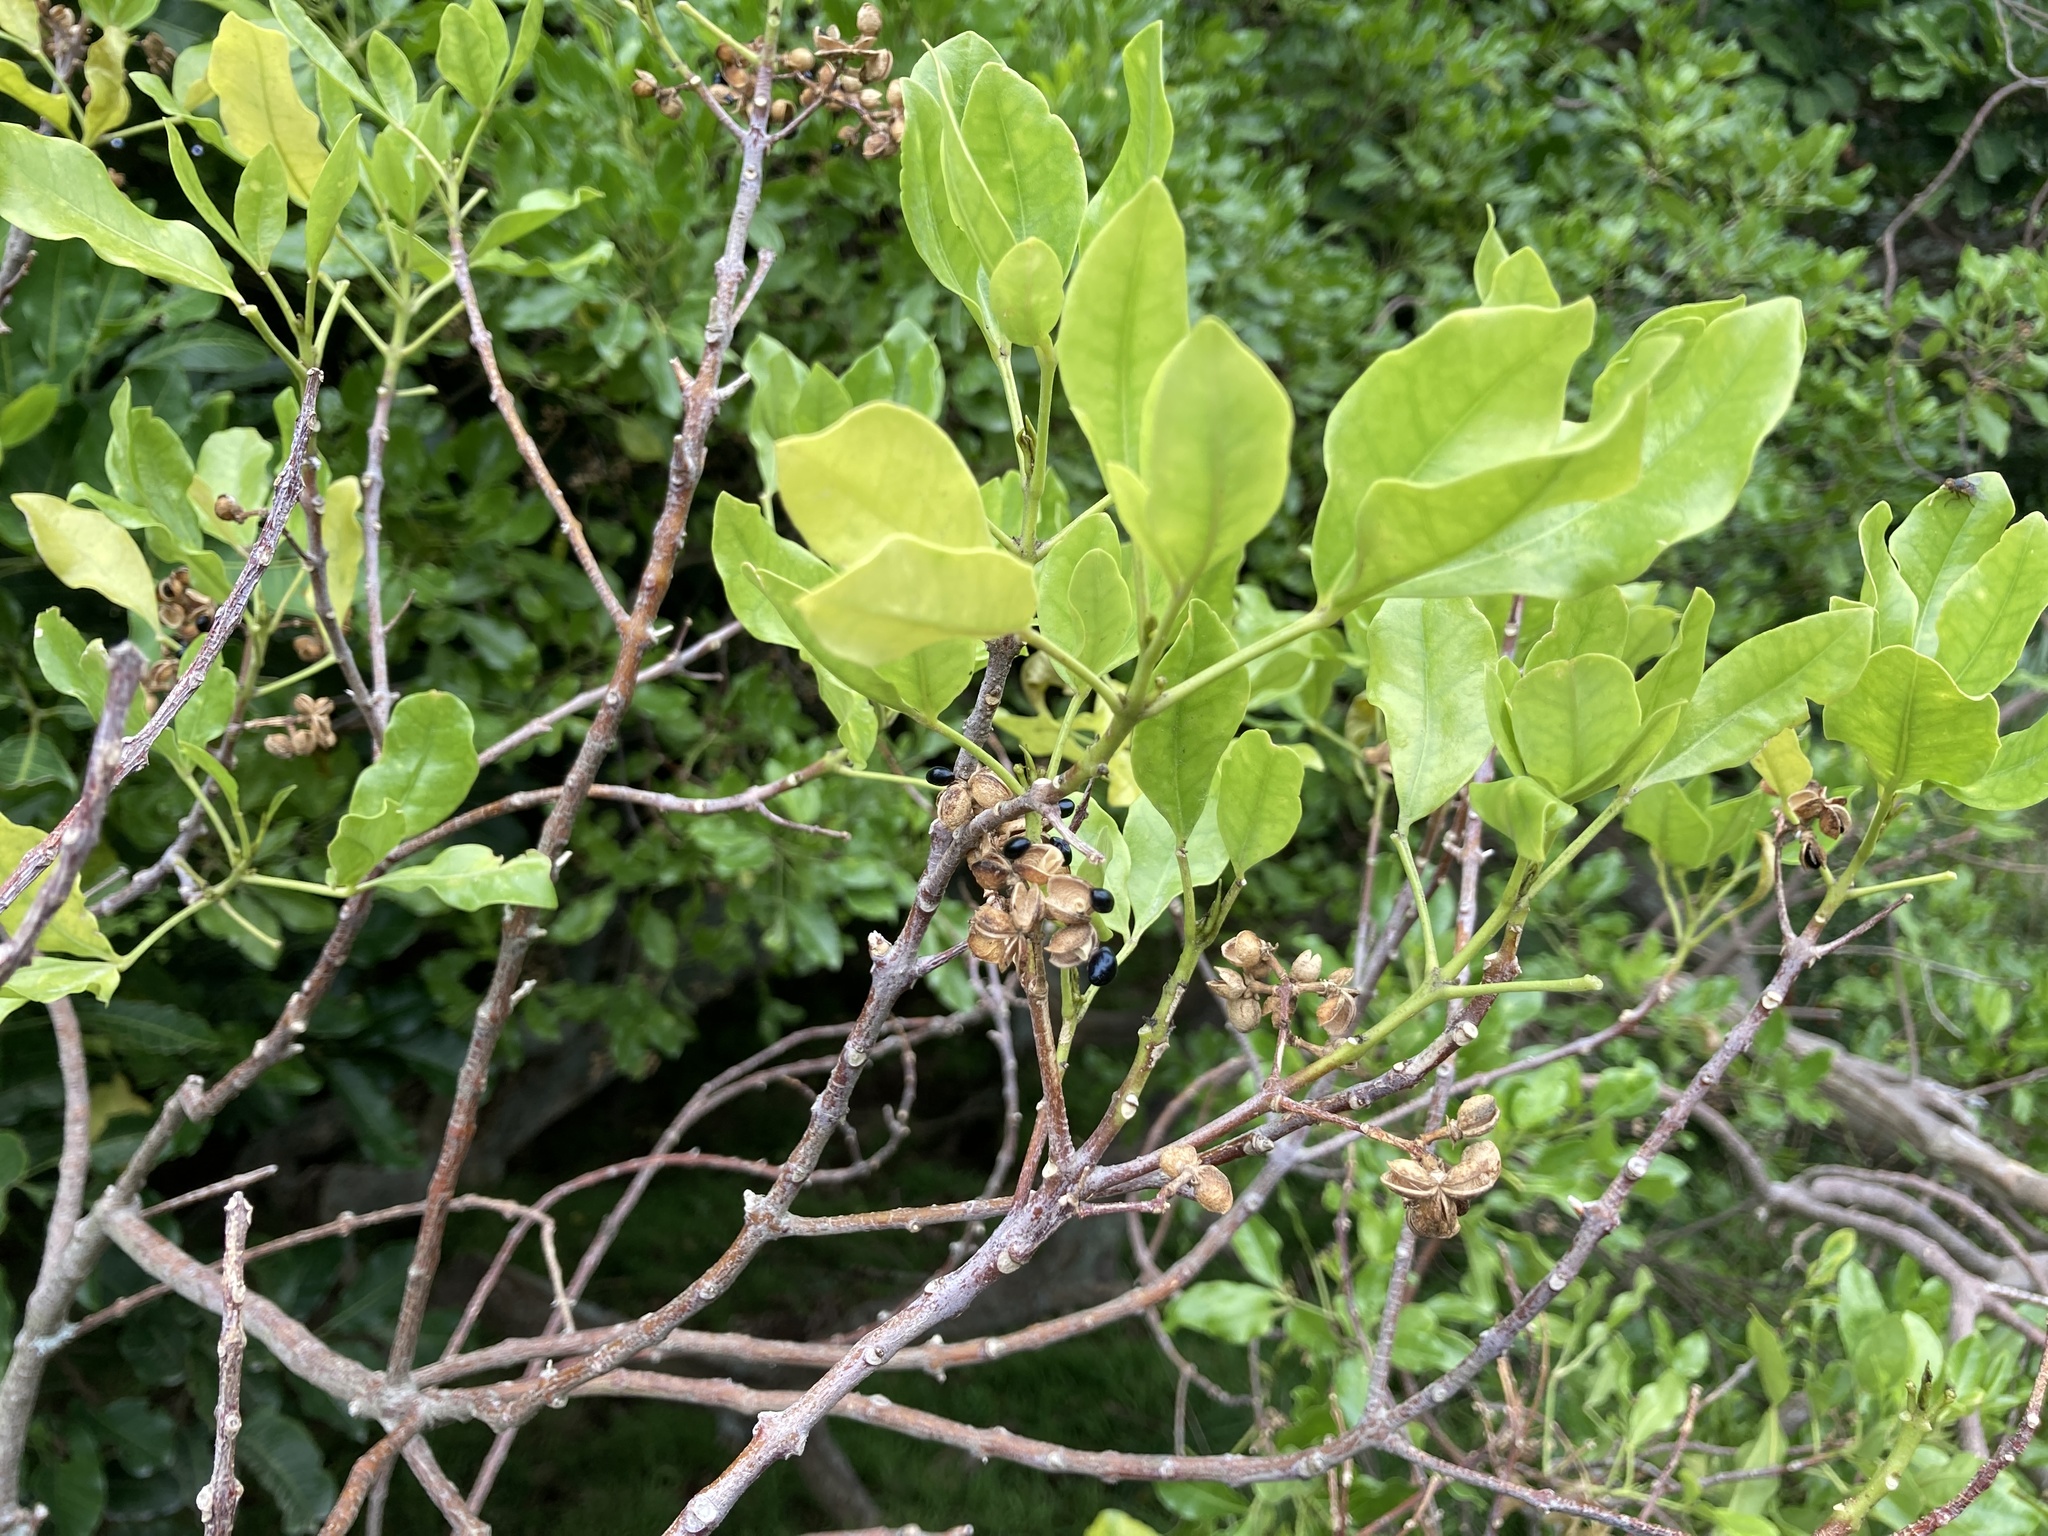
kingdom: Plantae
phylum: Tracheophyta
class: Magnoliopsida
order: Sapindales
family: Rutaceae
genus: Melicope
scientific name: Melicope ternata
